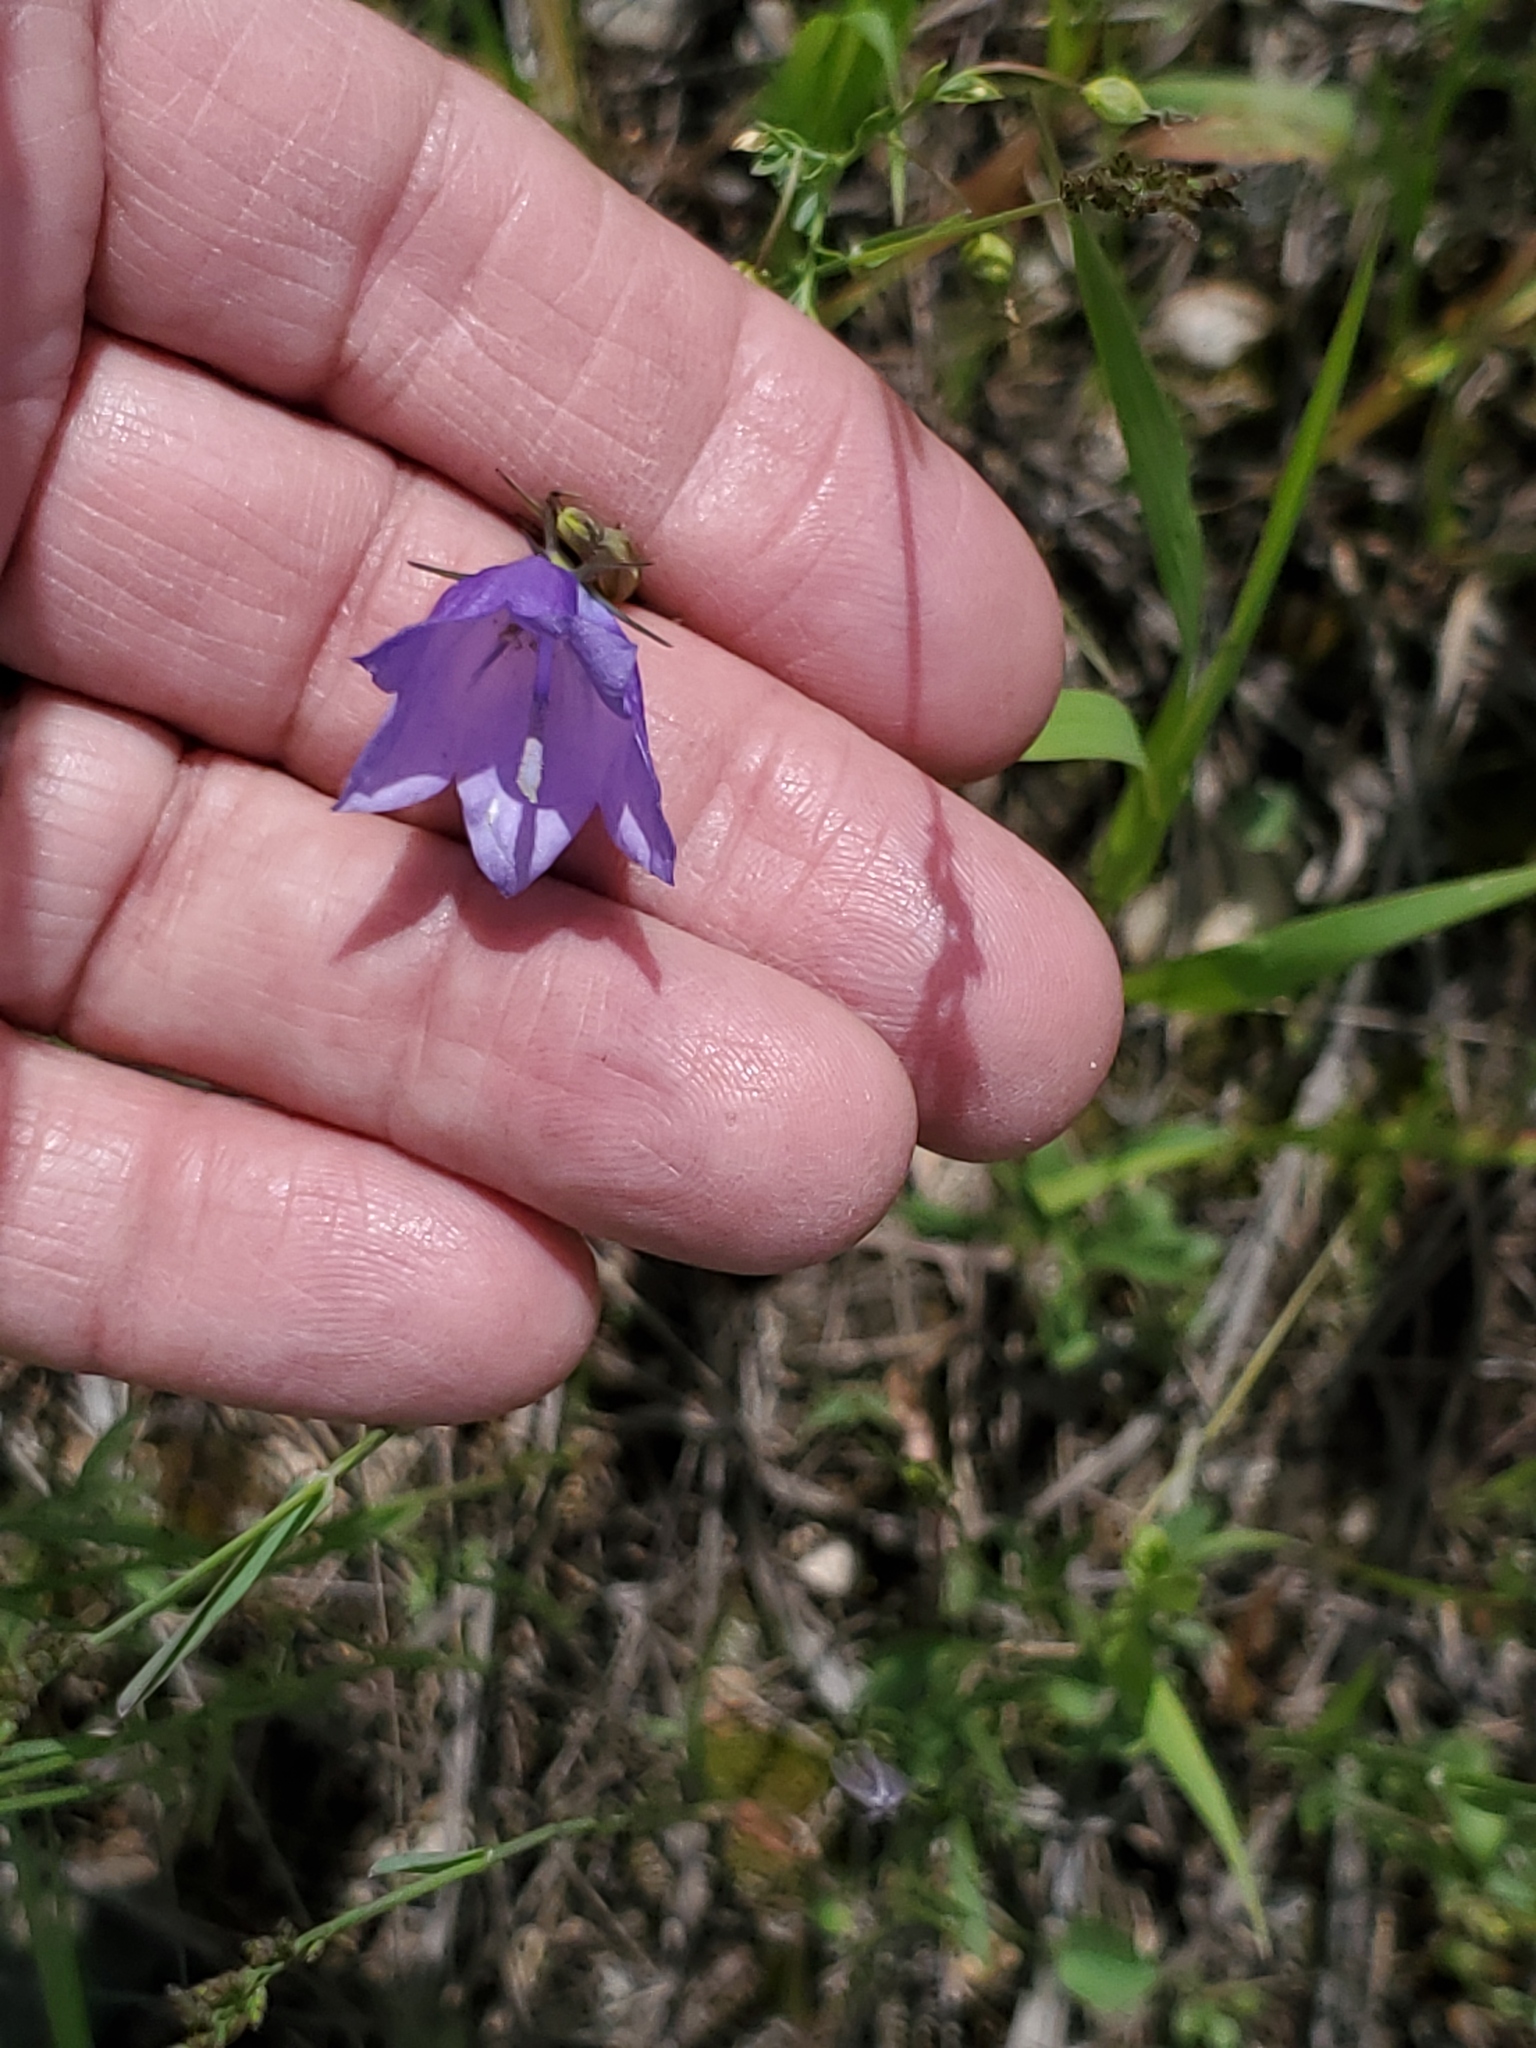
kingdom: Plantae
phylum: Tracheophyta
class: Magnoliopsida
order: Asterales
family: Campanulaceae
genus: Campanula
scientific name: Campanula petiolata
